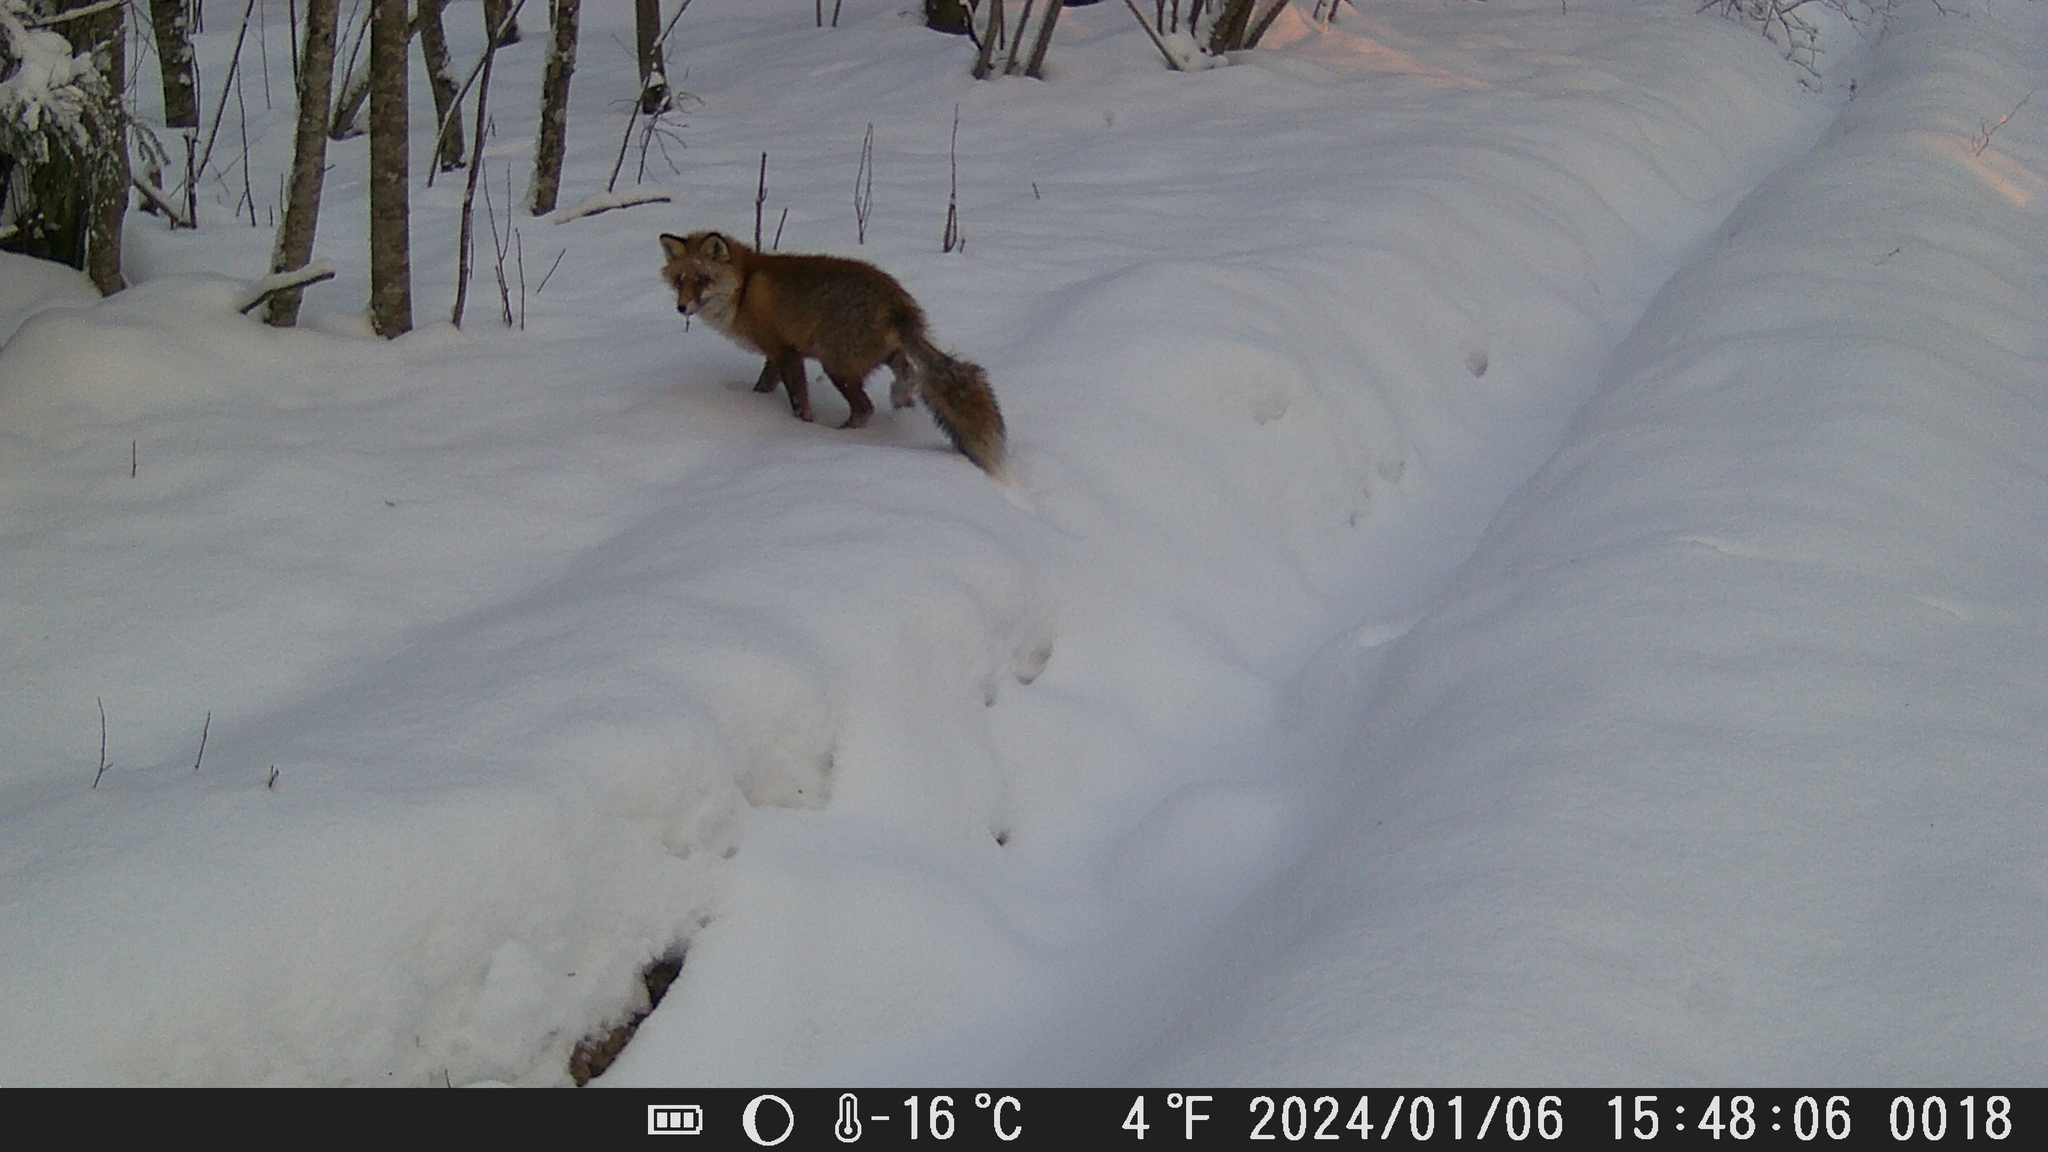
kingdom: Animalia
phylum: Chordata
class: Mammalia
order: Carnivora
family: Canidae
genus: Vulpes
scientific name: Vulpes vulpes
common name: Red fox
